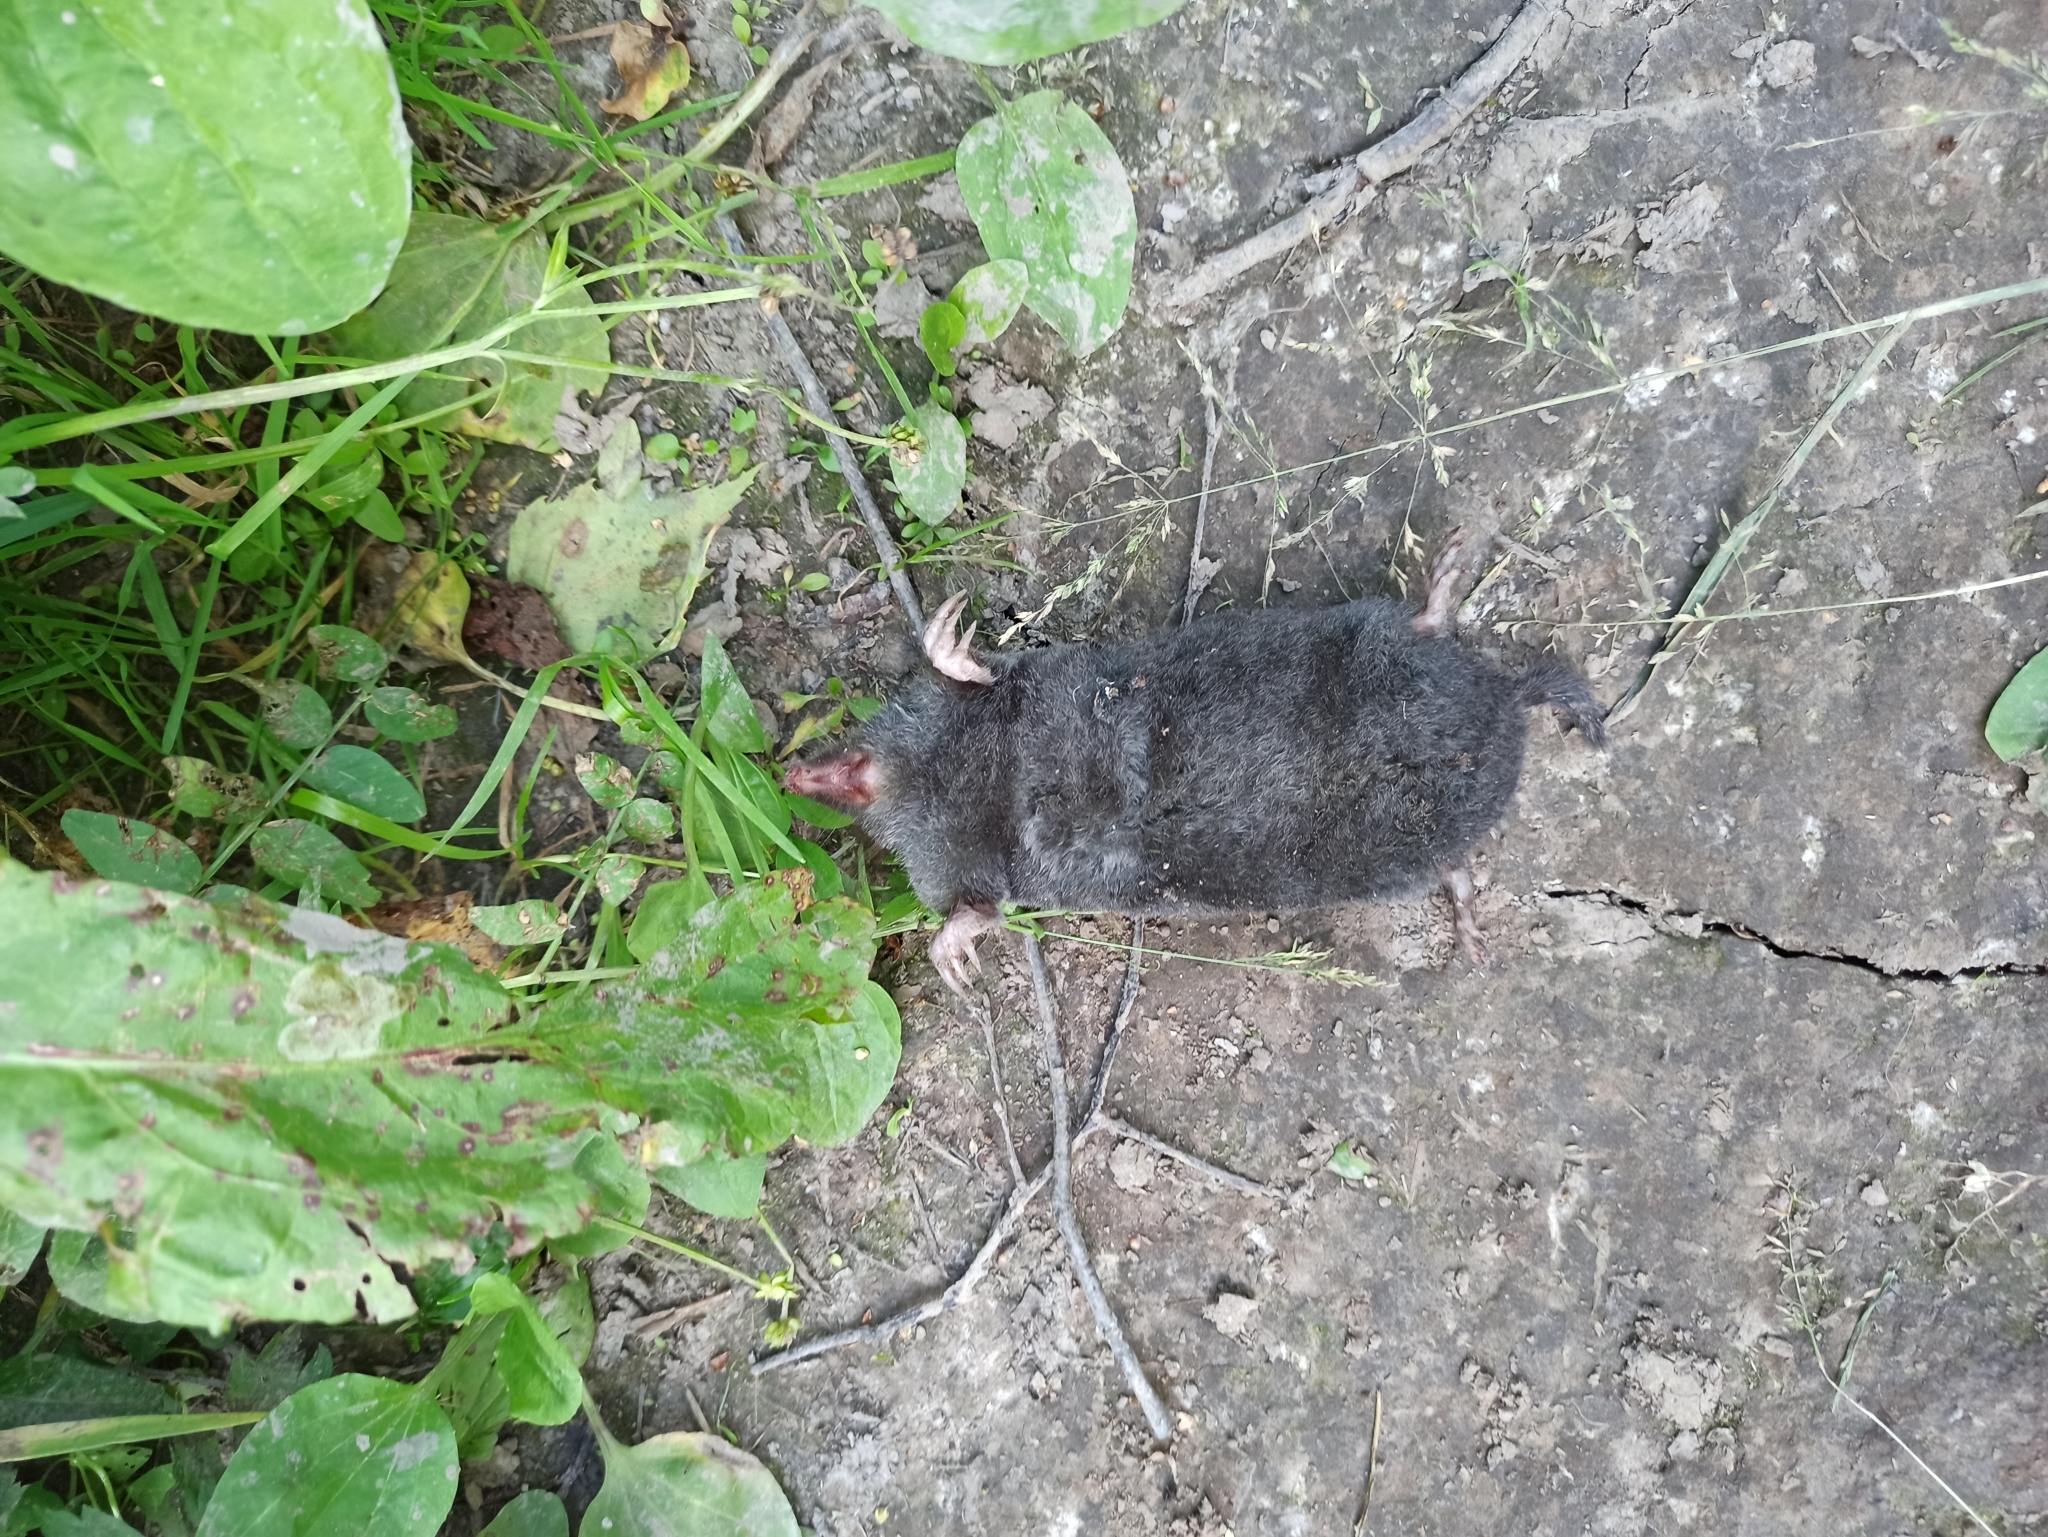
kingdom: Animalia
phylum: Chordata
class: Mammalia
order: Soricomorpha
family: Talpidae
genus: Talpa
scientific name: Talpa europaea
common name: European mole
